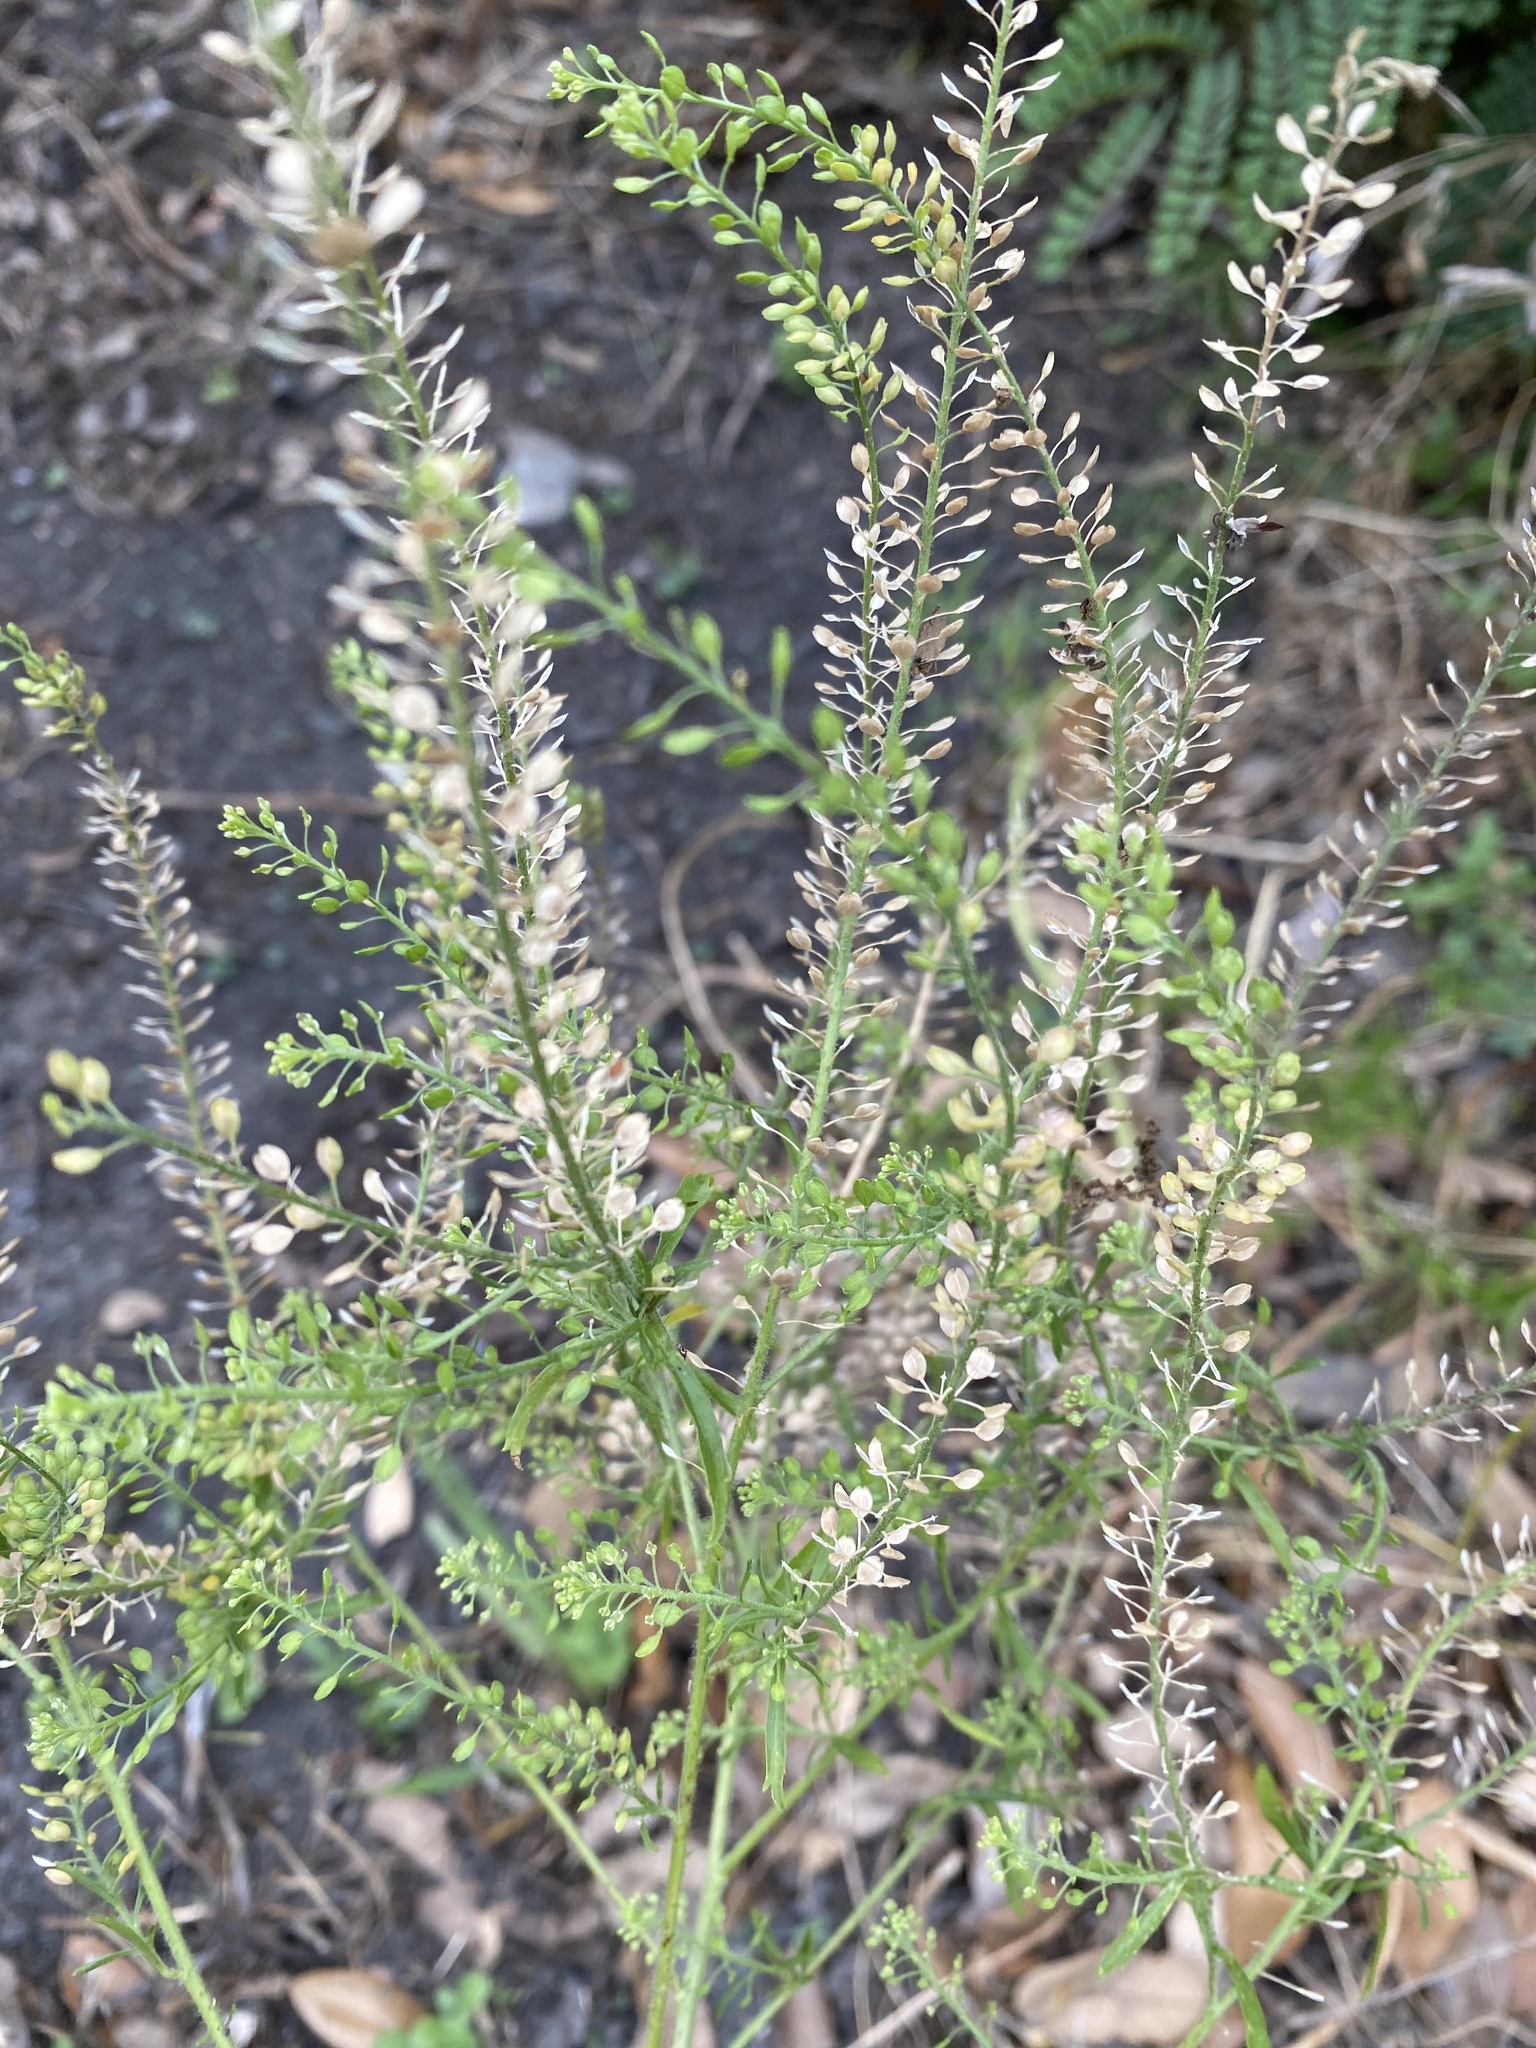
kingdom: Plantae
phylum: Tracheophyta
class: Magnoliopsida
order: Brassicales
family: Brassicaceae
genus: Lepidium
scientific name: Lepidium virginicum
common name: Least pepperwort
